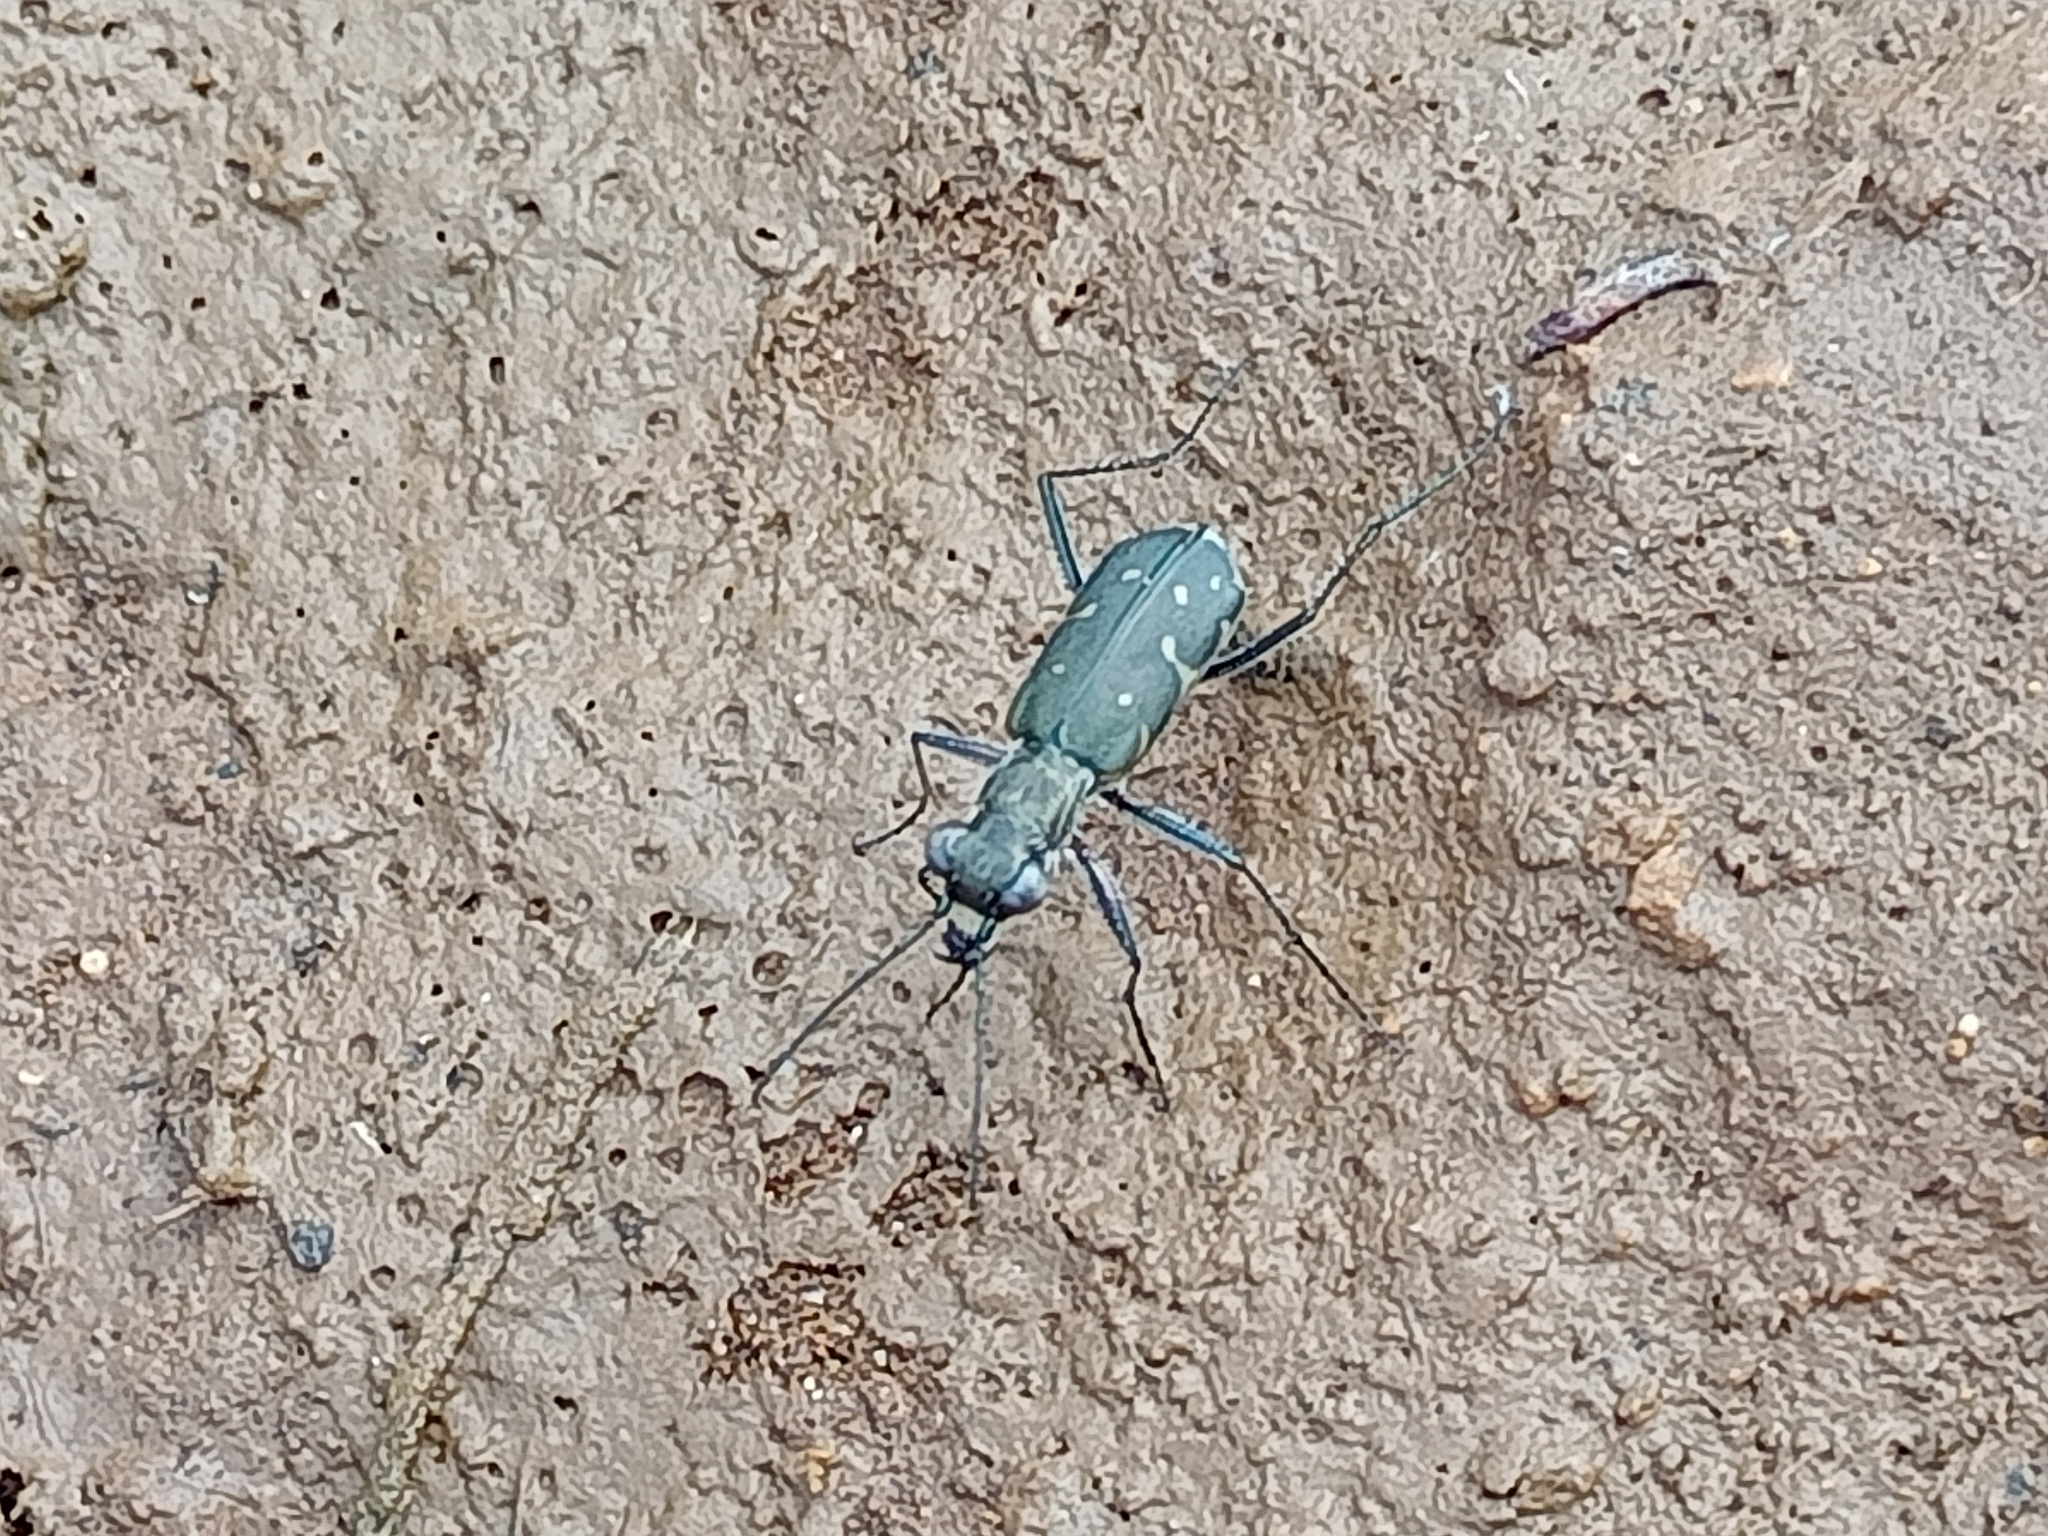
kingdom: Animalia
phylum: Arthropoda
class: Insecta
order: Coleoptera
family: Carabidae
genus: Myriochila
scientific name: Myriochila melancholica
